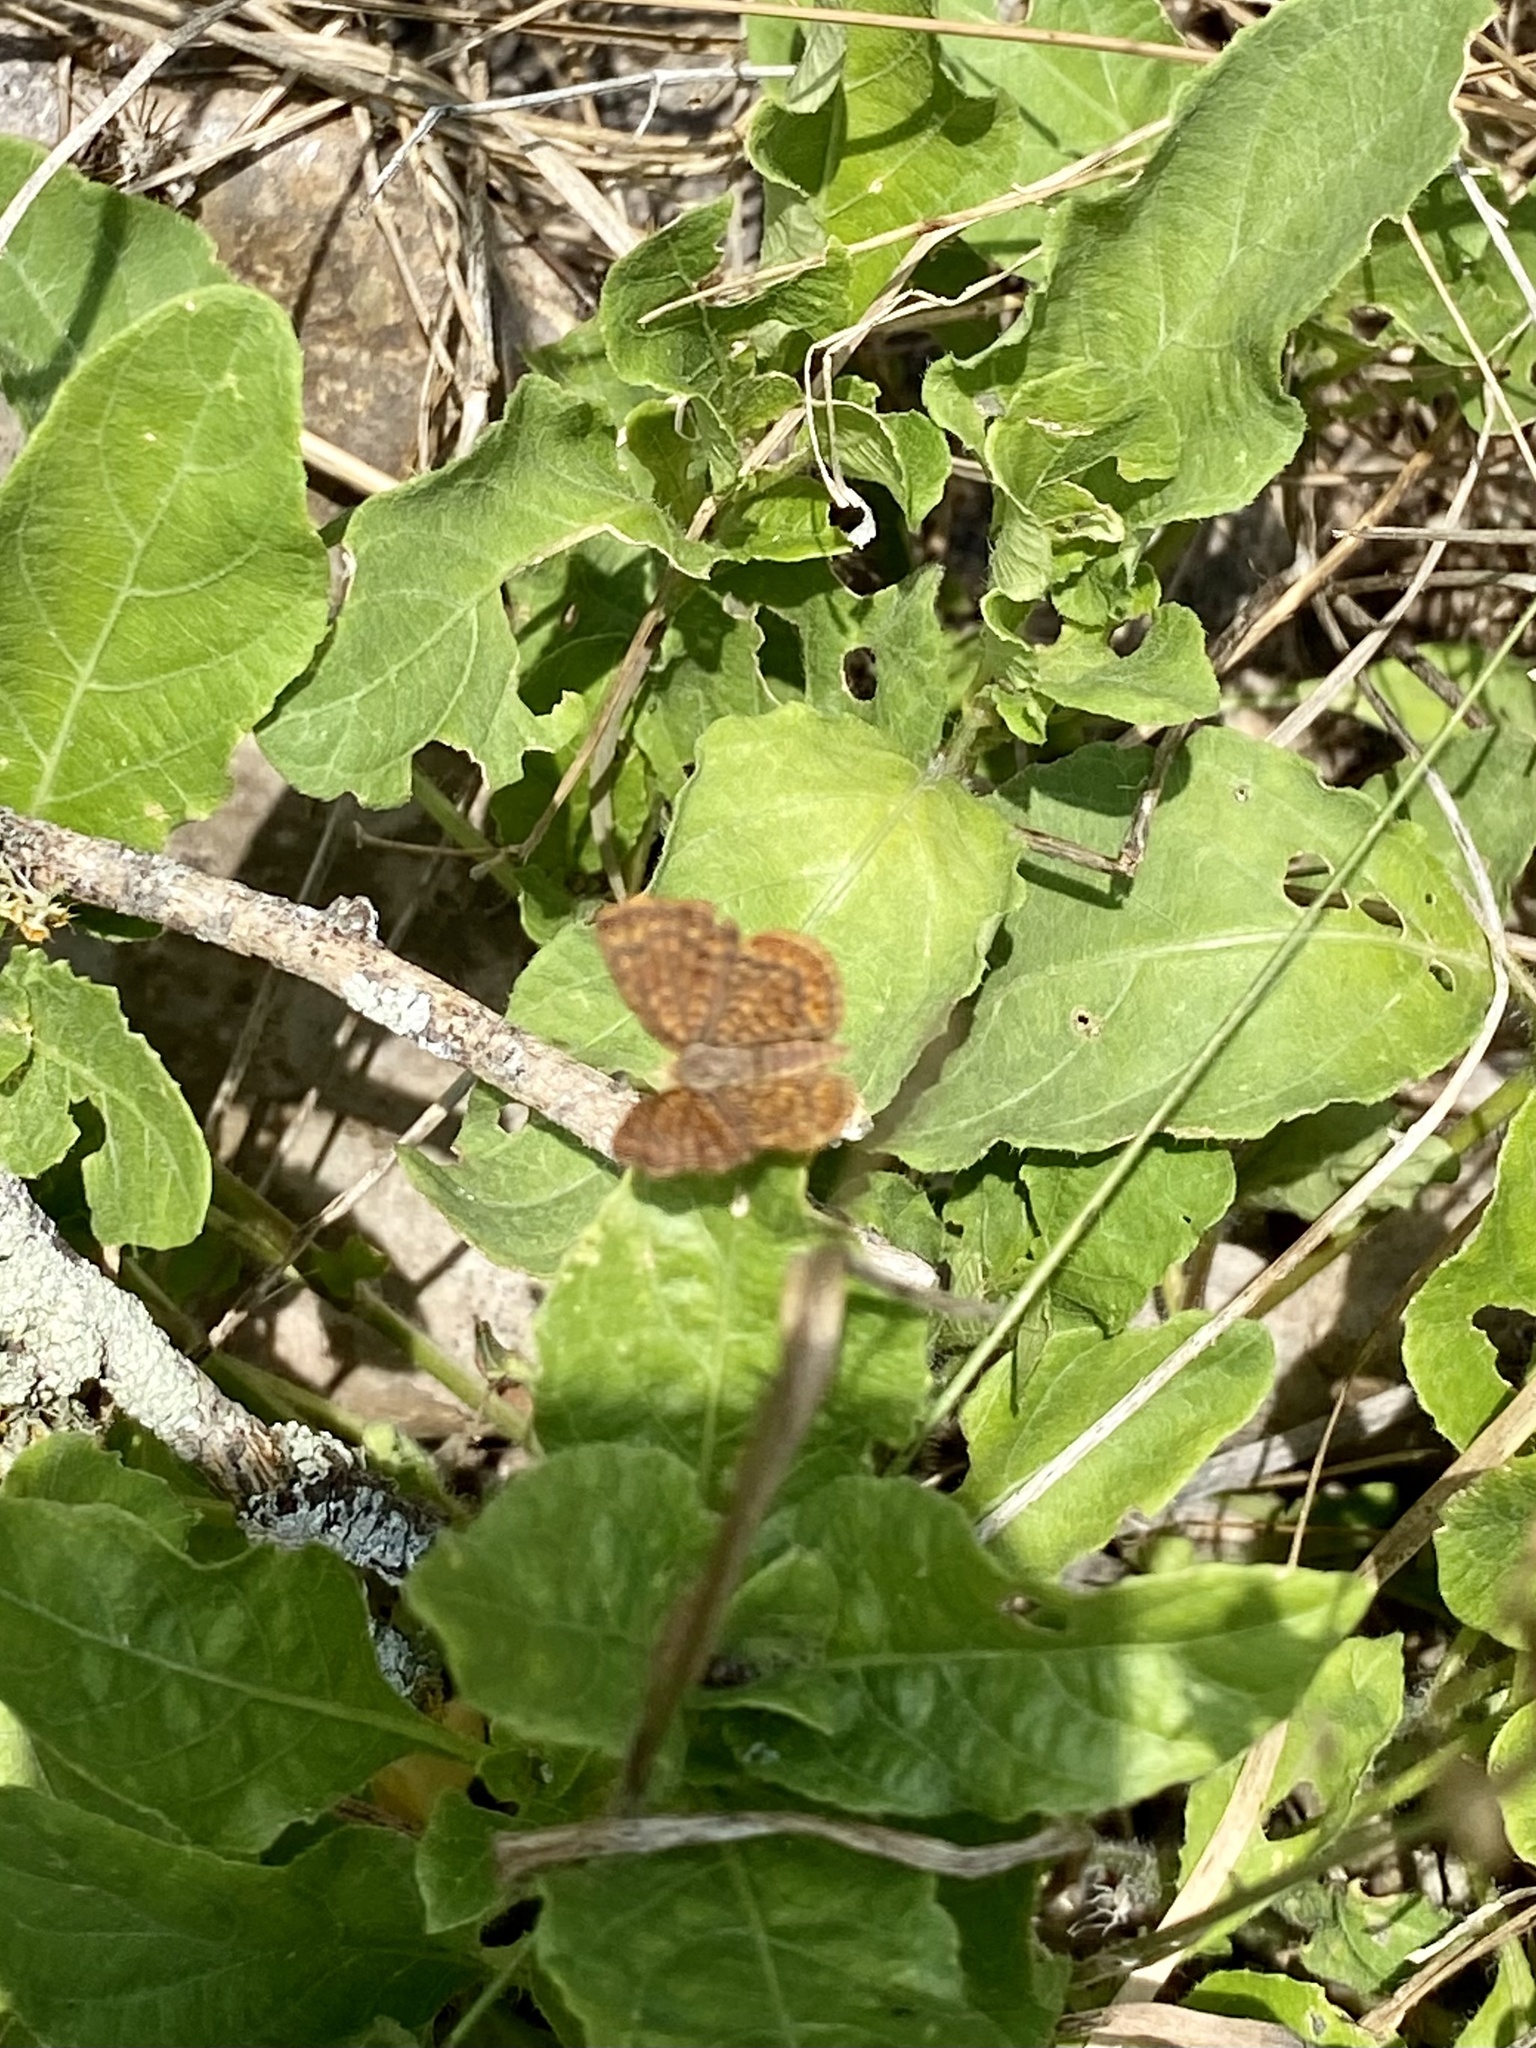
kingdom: Animalia
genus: Calephelis
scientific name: Calephelis perditalis
